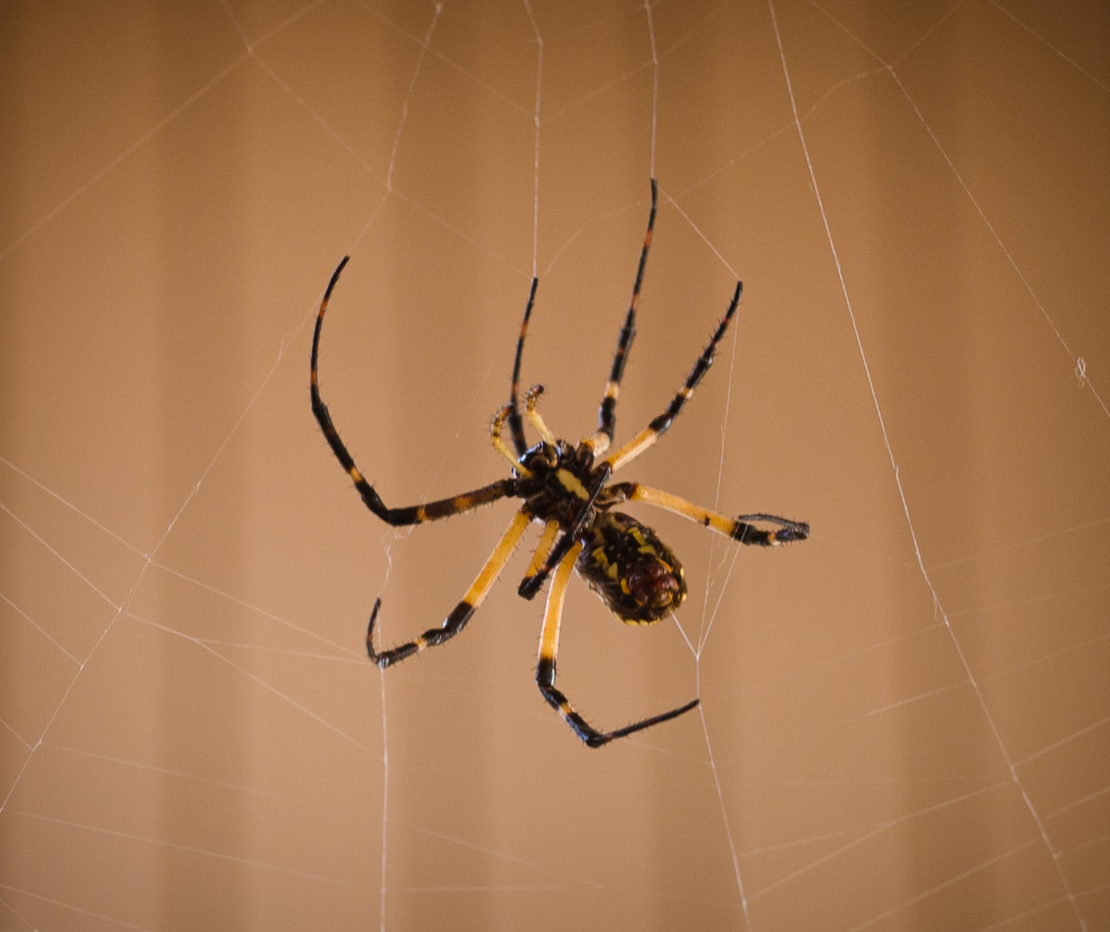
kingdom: Animalia
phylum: Arthropoda
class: Arachnida
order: Araneae
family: Araneidae
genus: Argiope
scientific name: Argiope aurantia
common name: Orb weavers
